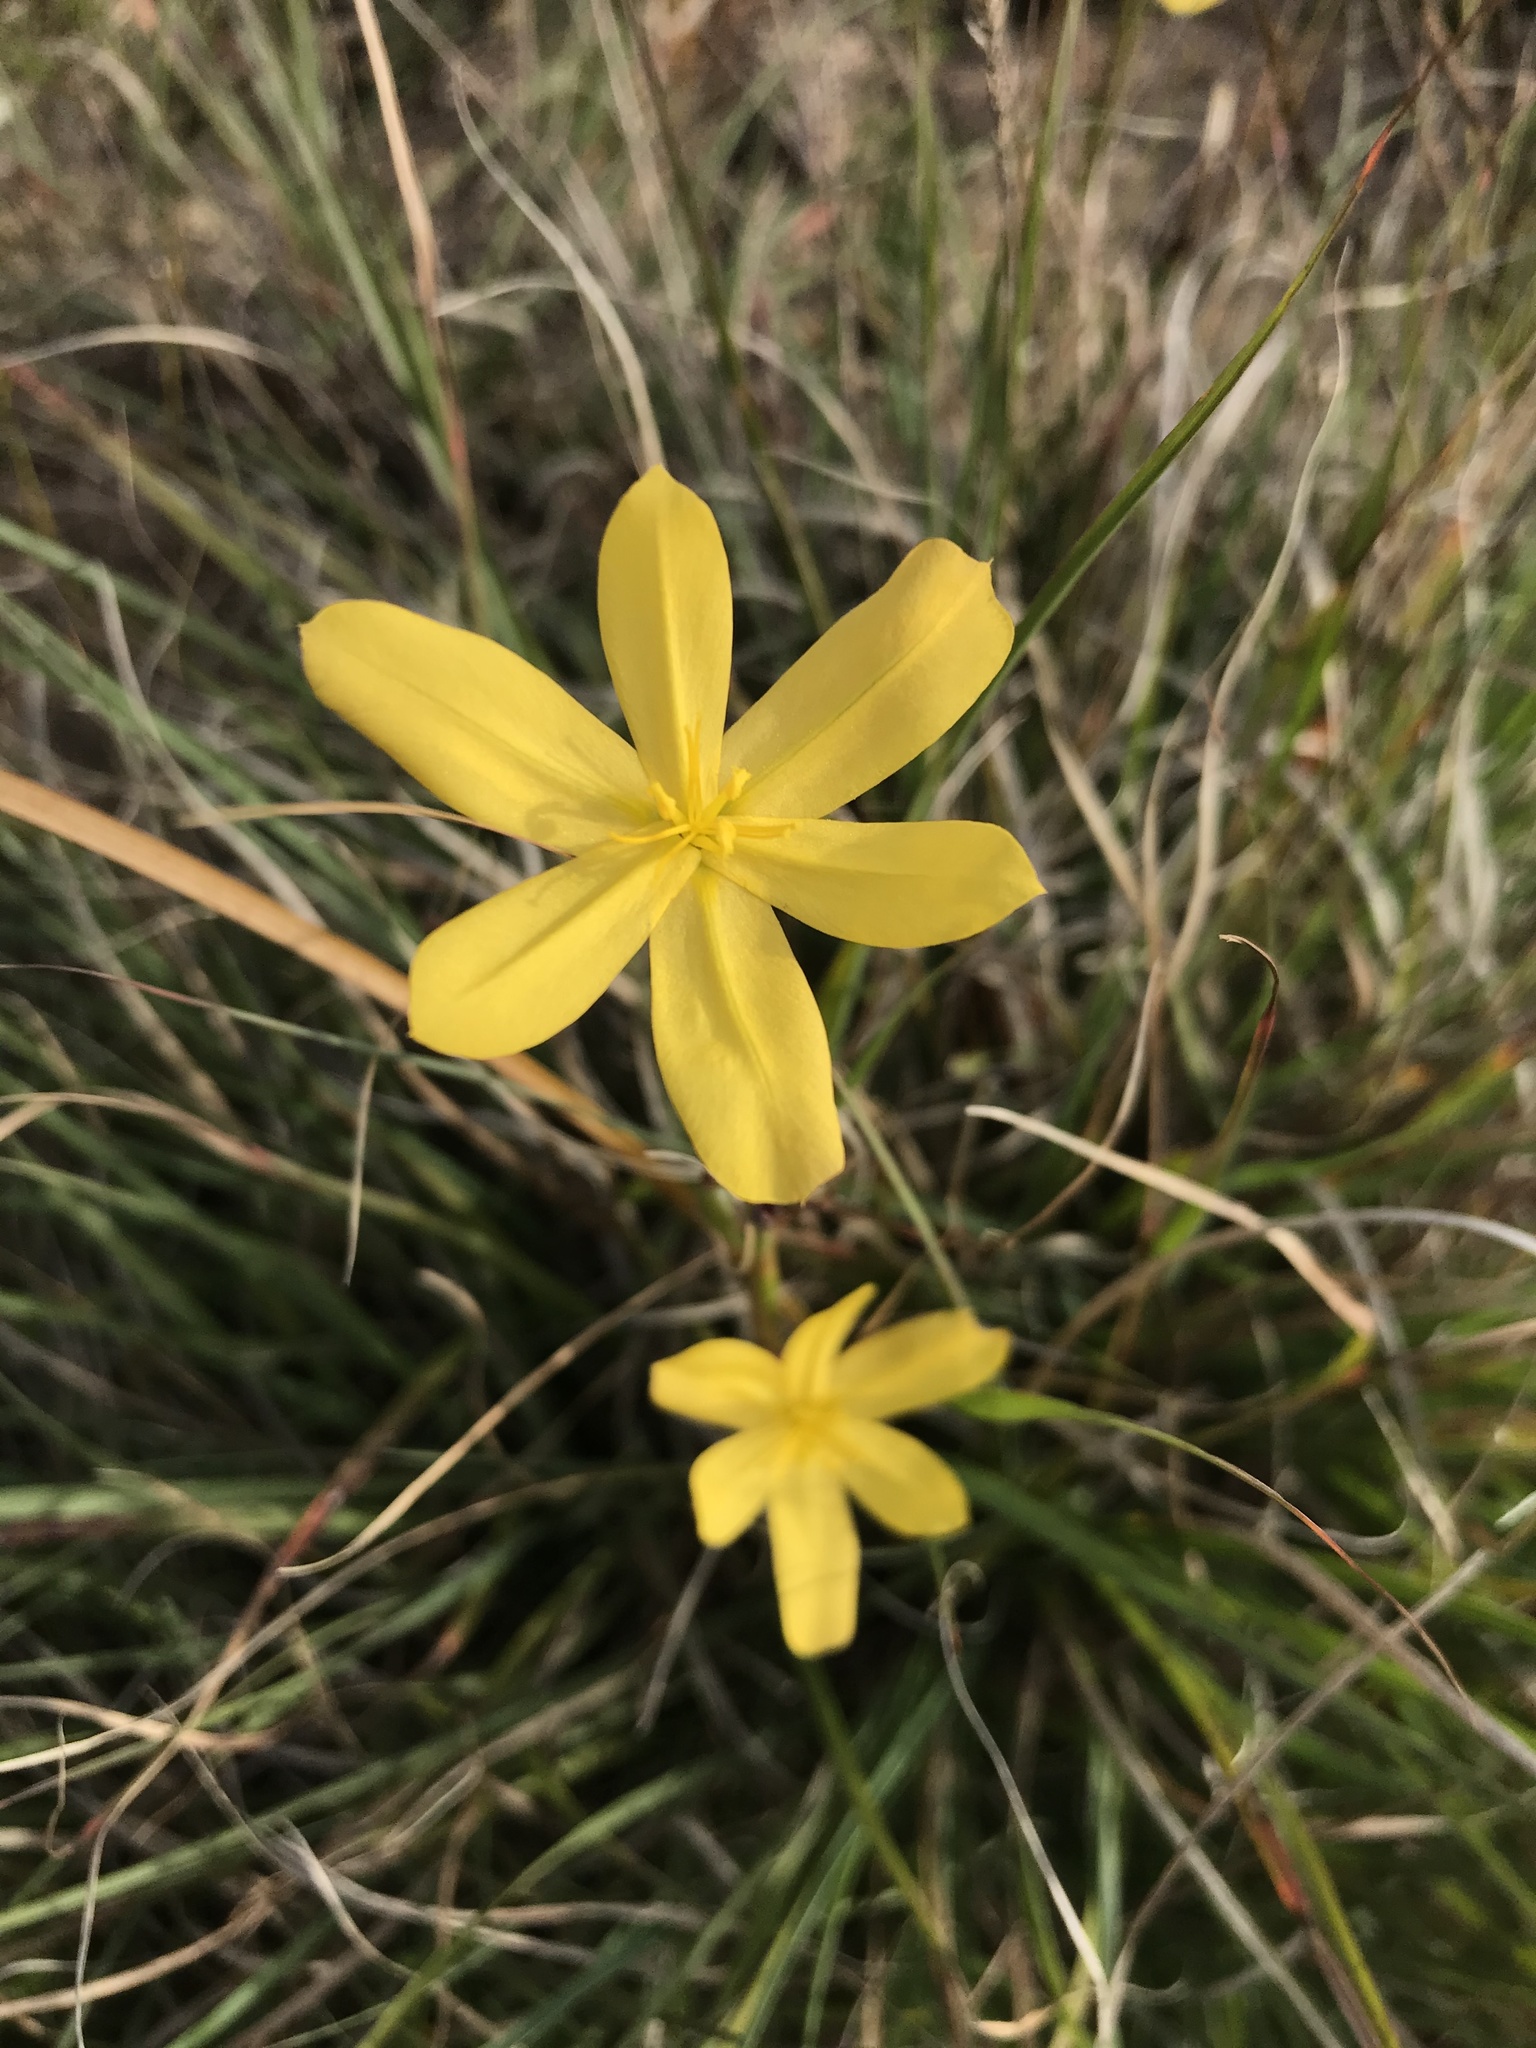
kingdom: Plantae
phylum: Tracheophyta
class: Liliopsida
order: Asparagales
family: Iridaceae
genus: Moraea
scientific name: Moraea lewisiae
